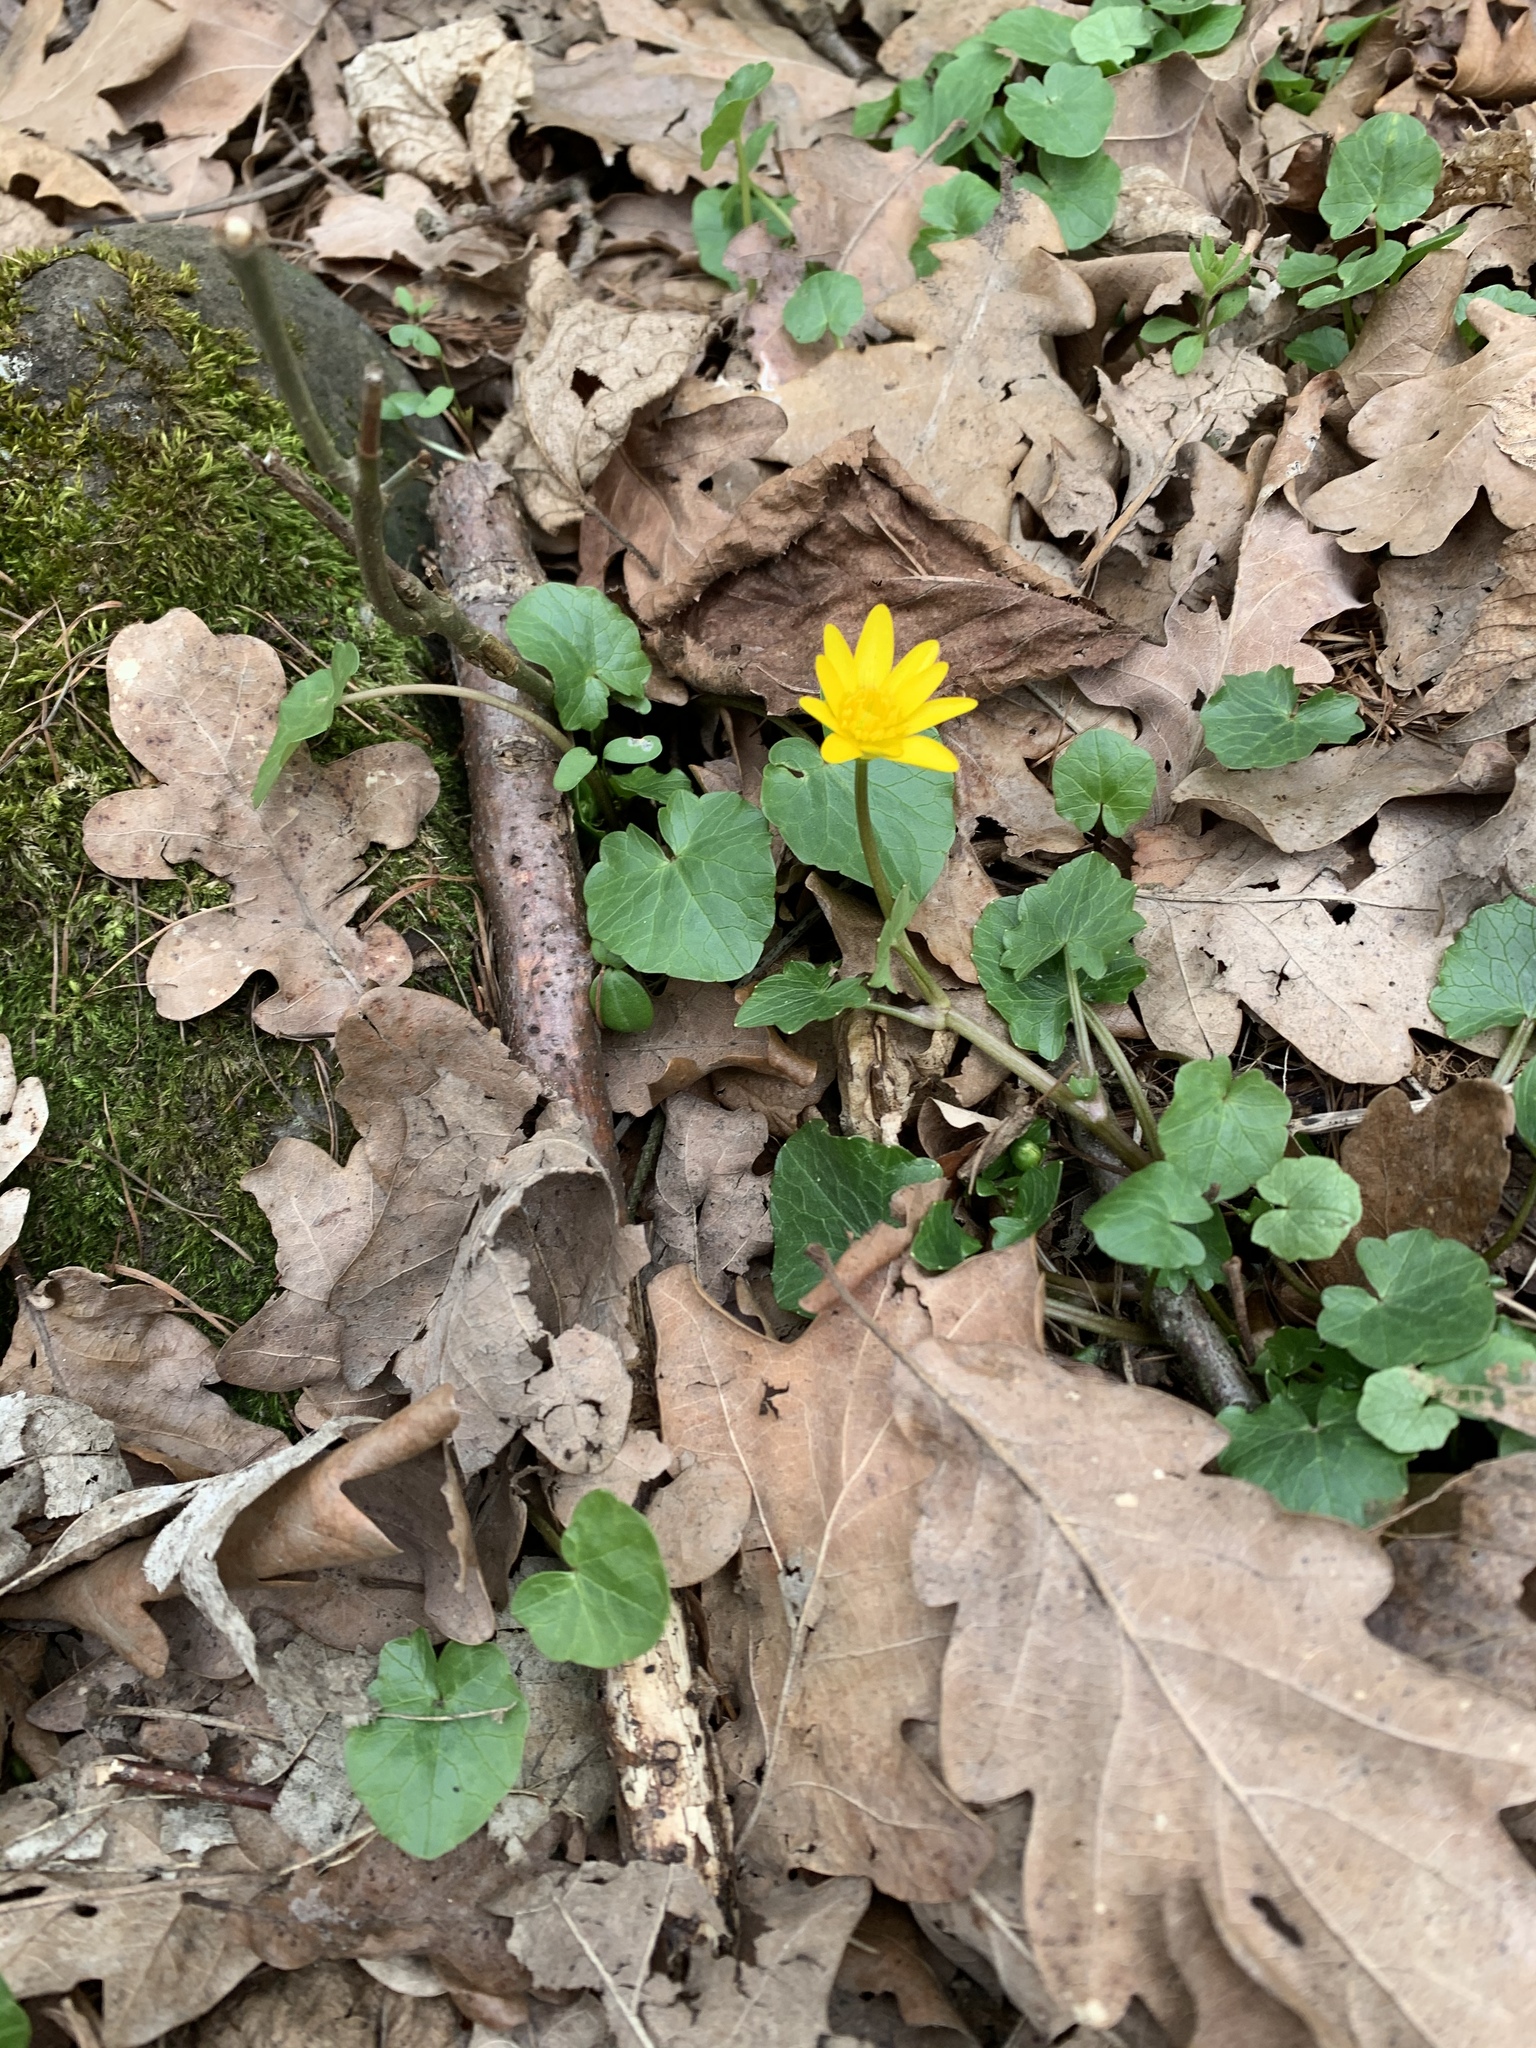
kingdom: Plantae
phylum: Tracheophyta
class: Magnoliopsida
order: Ranunculales
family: Ranunculaceae
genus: Ficaria
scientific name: Ficaria verna
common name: Lesser celandine
